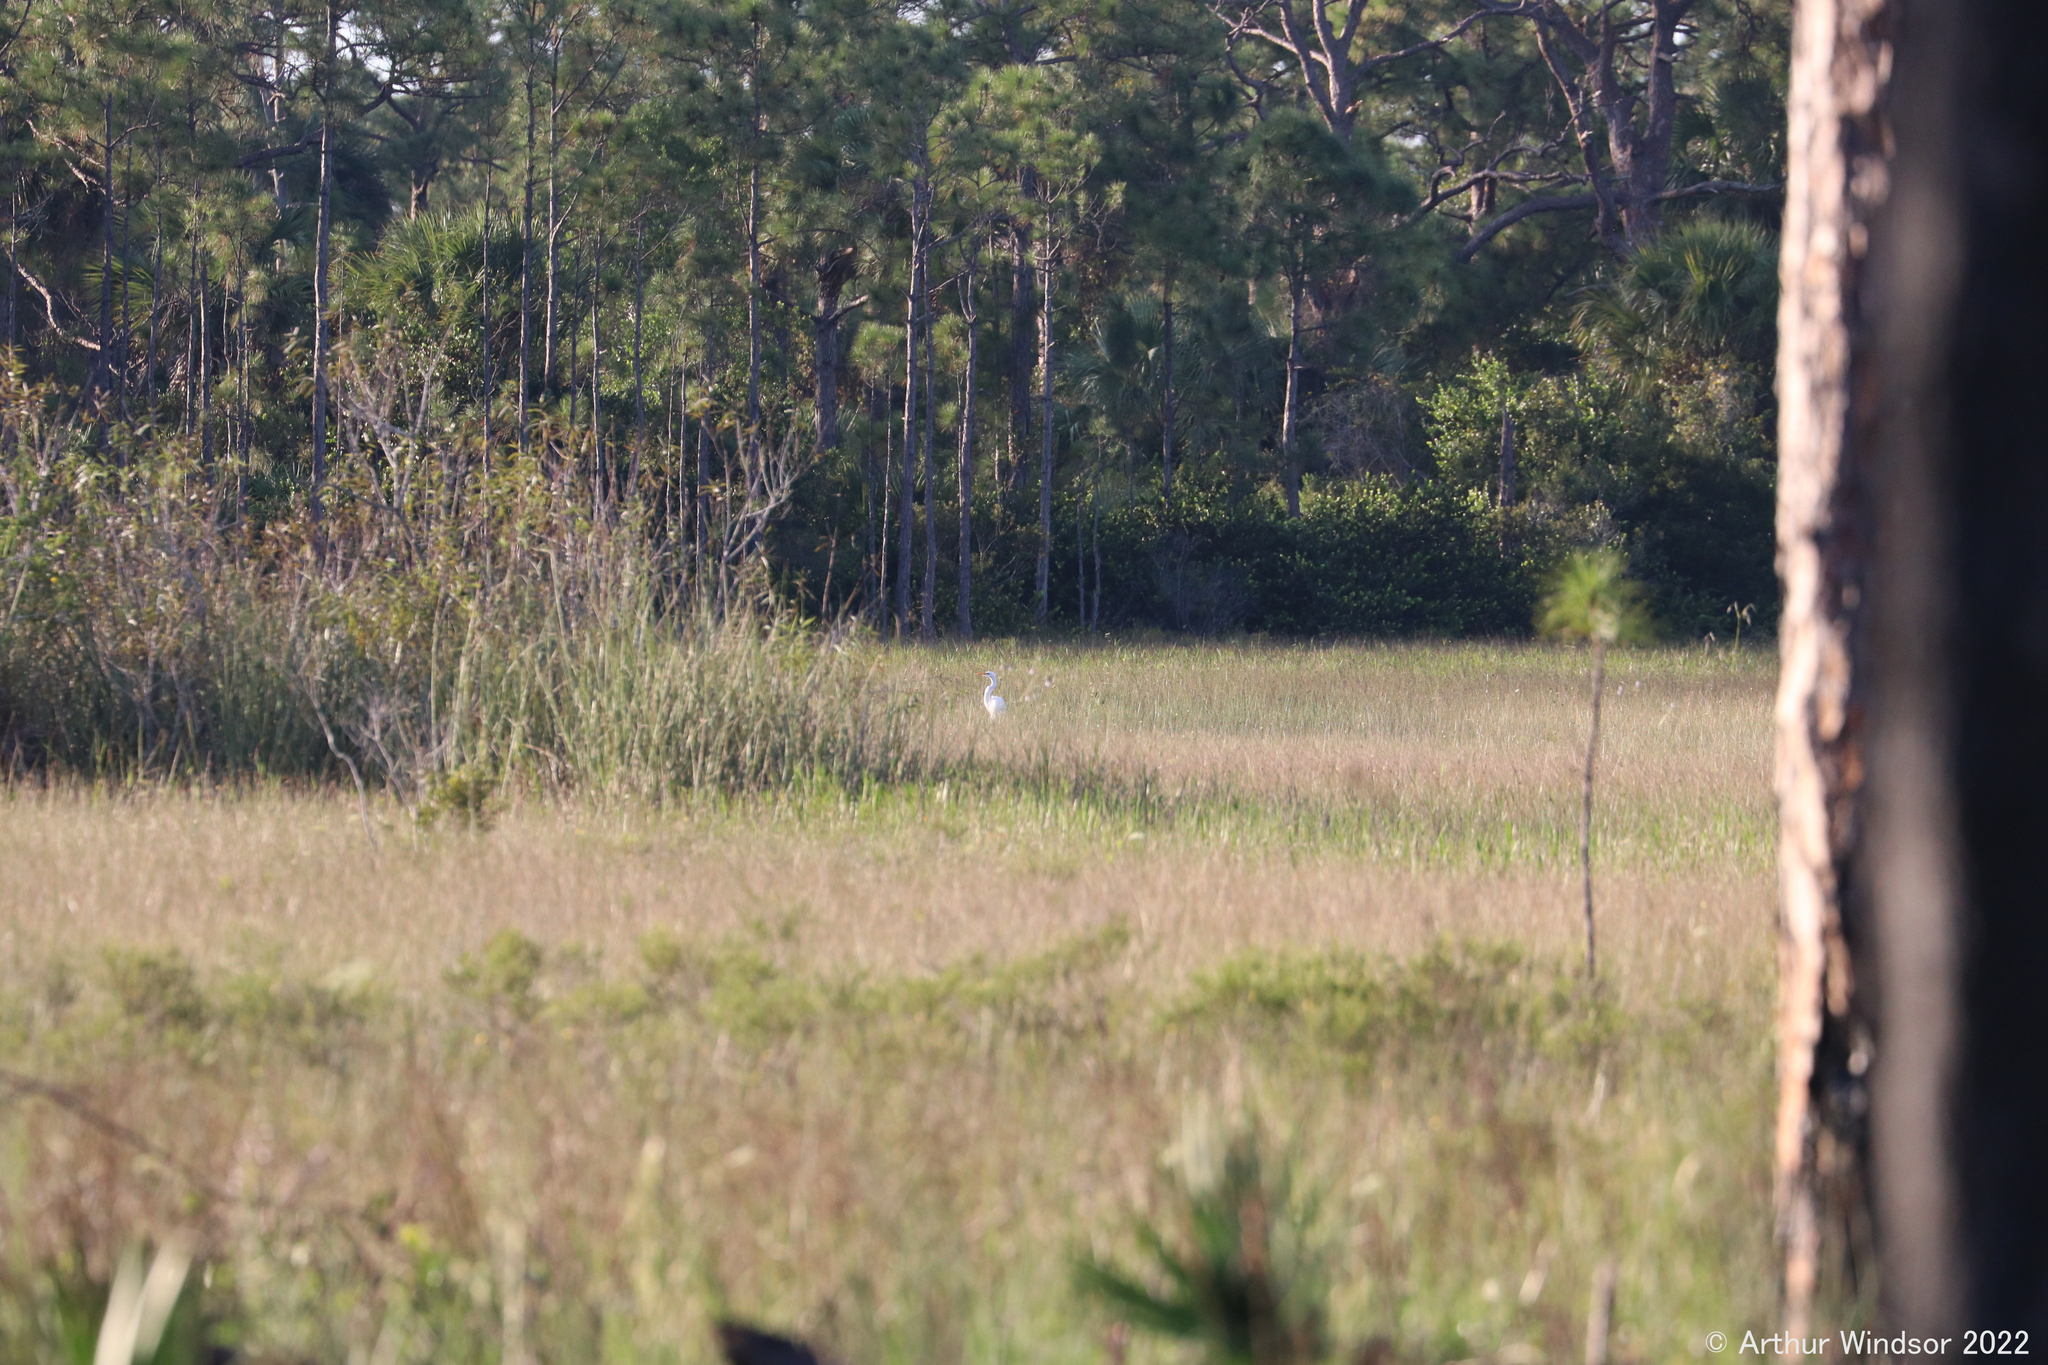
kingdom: Animalia
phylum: Chordata
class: Aves
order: Pelecaniformes
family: Ardeidae
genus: Ardea
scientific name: Ardea alba
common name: Great egret
